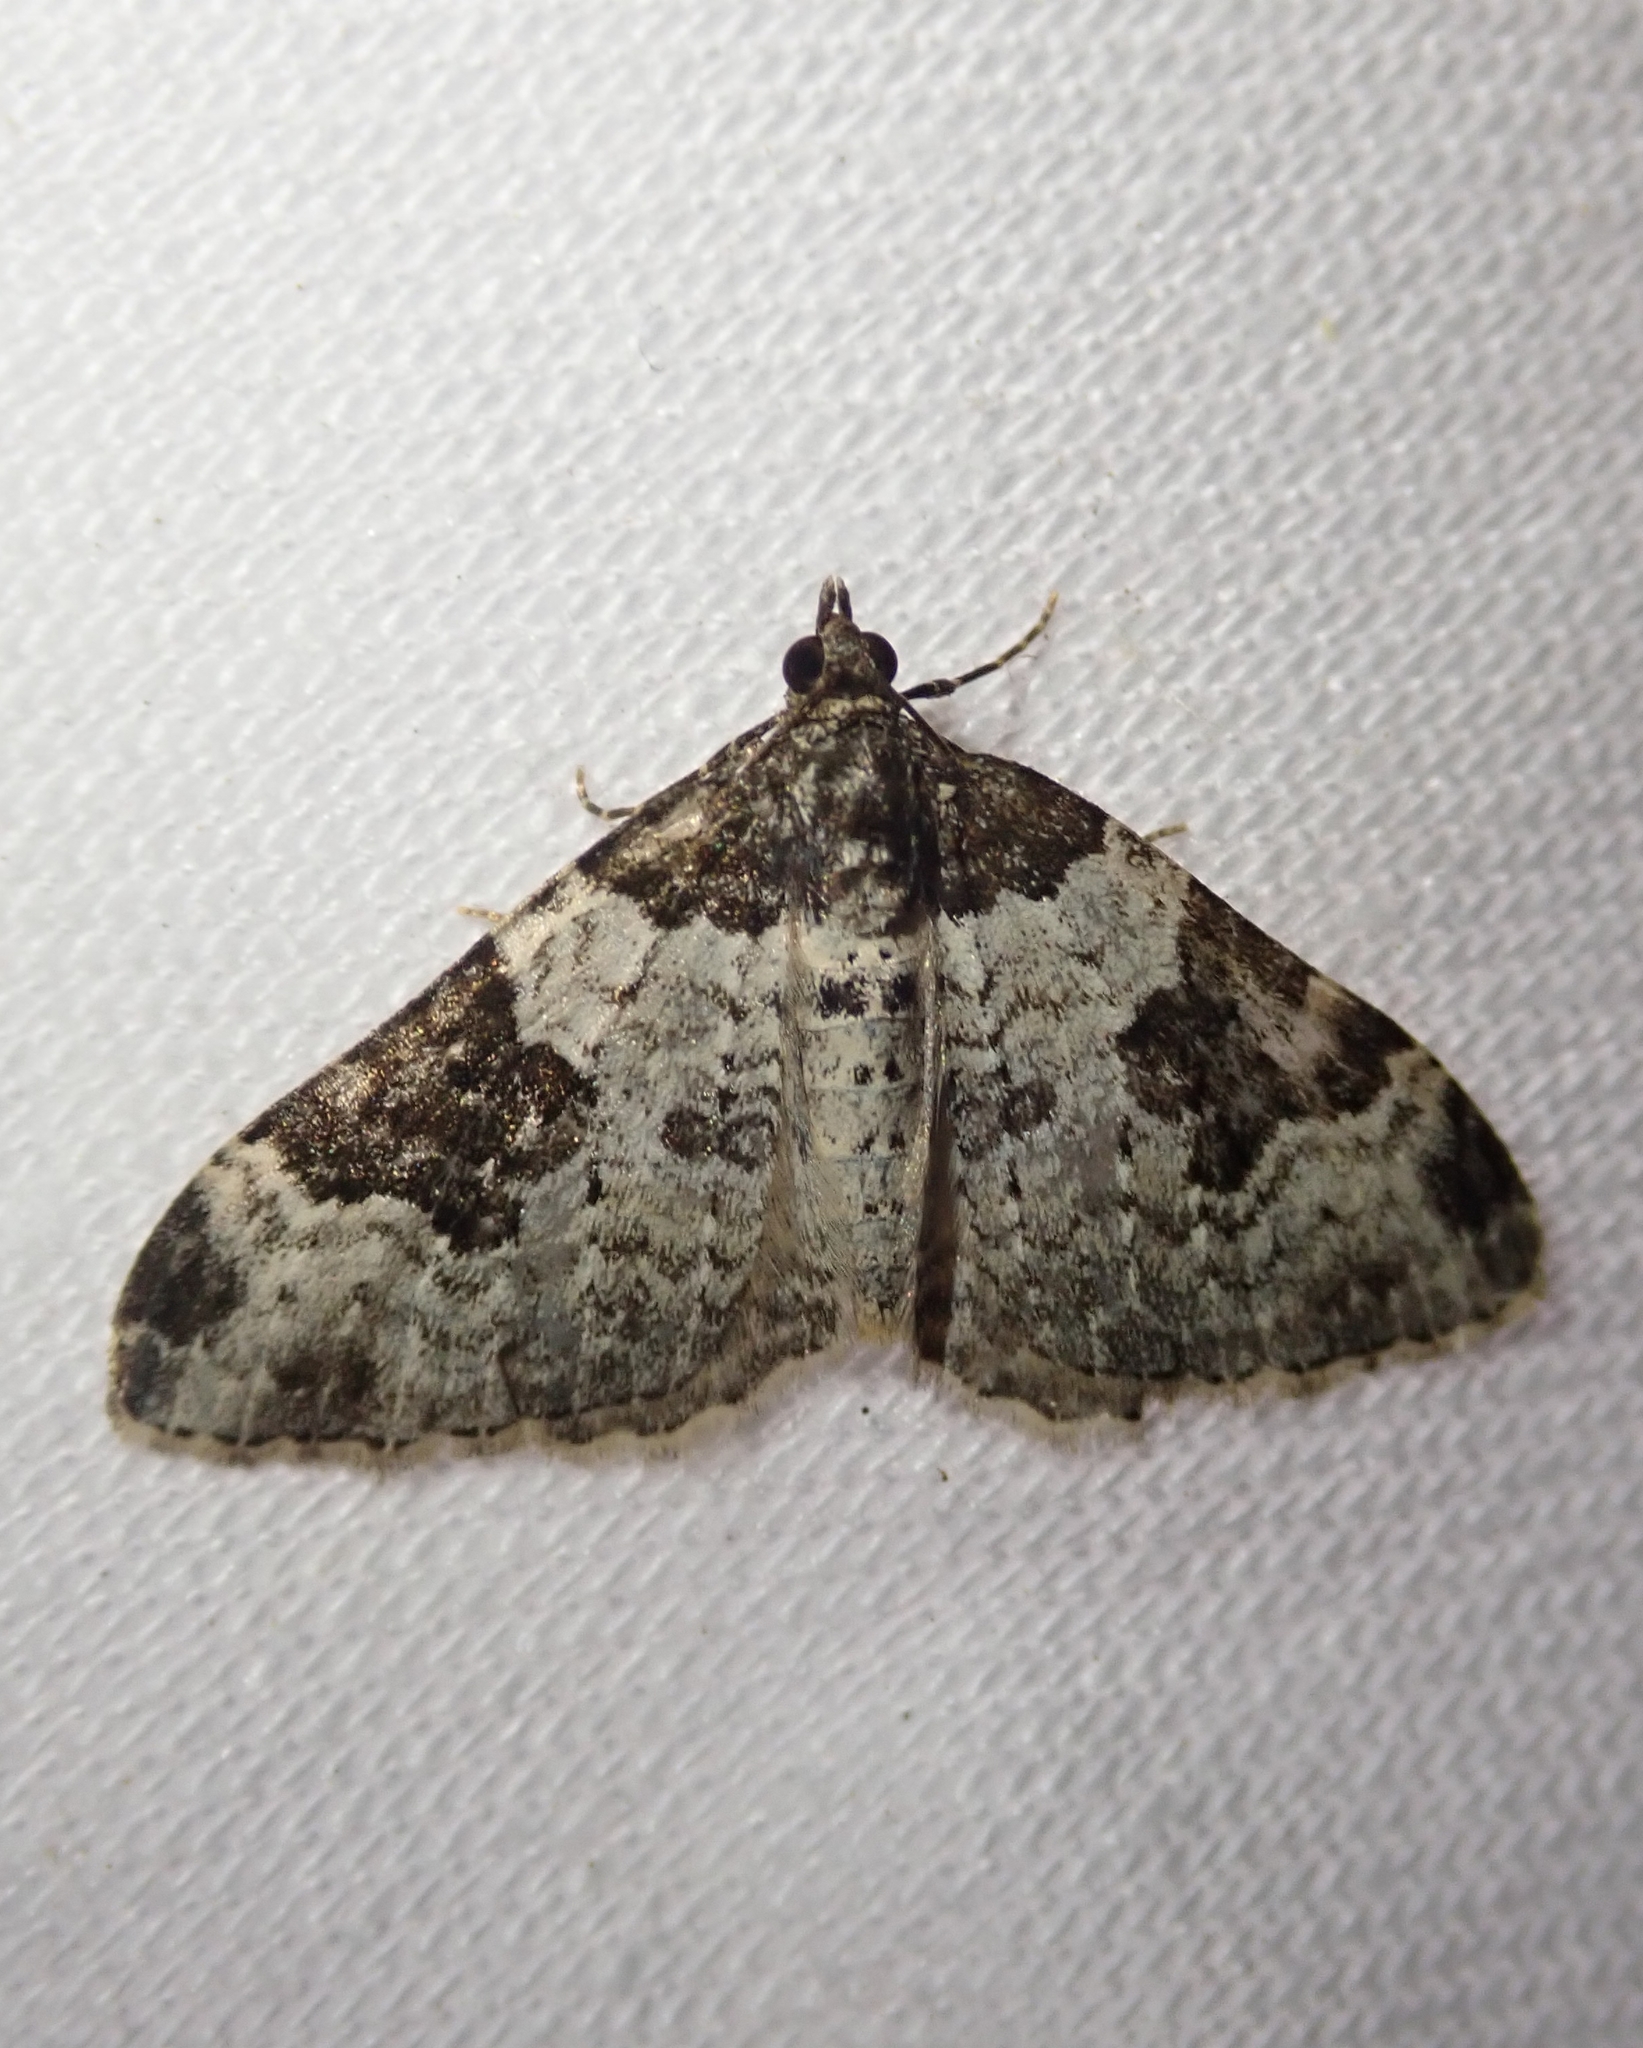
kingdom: Animalia
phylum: Arthropoda
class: Insecta
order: Lepidoptera
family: Geometridae
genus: Xanthorhoe
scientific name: Xanthorhoe fluctuata
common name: Garden carpet
